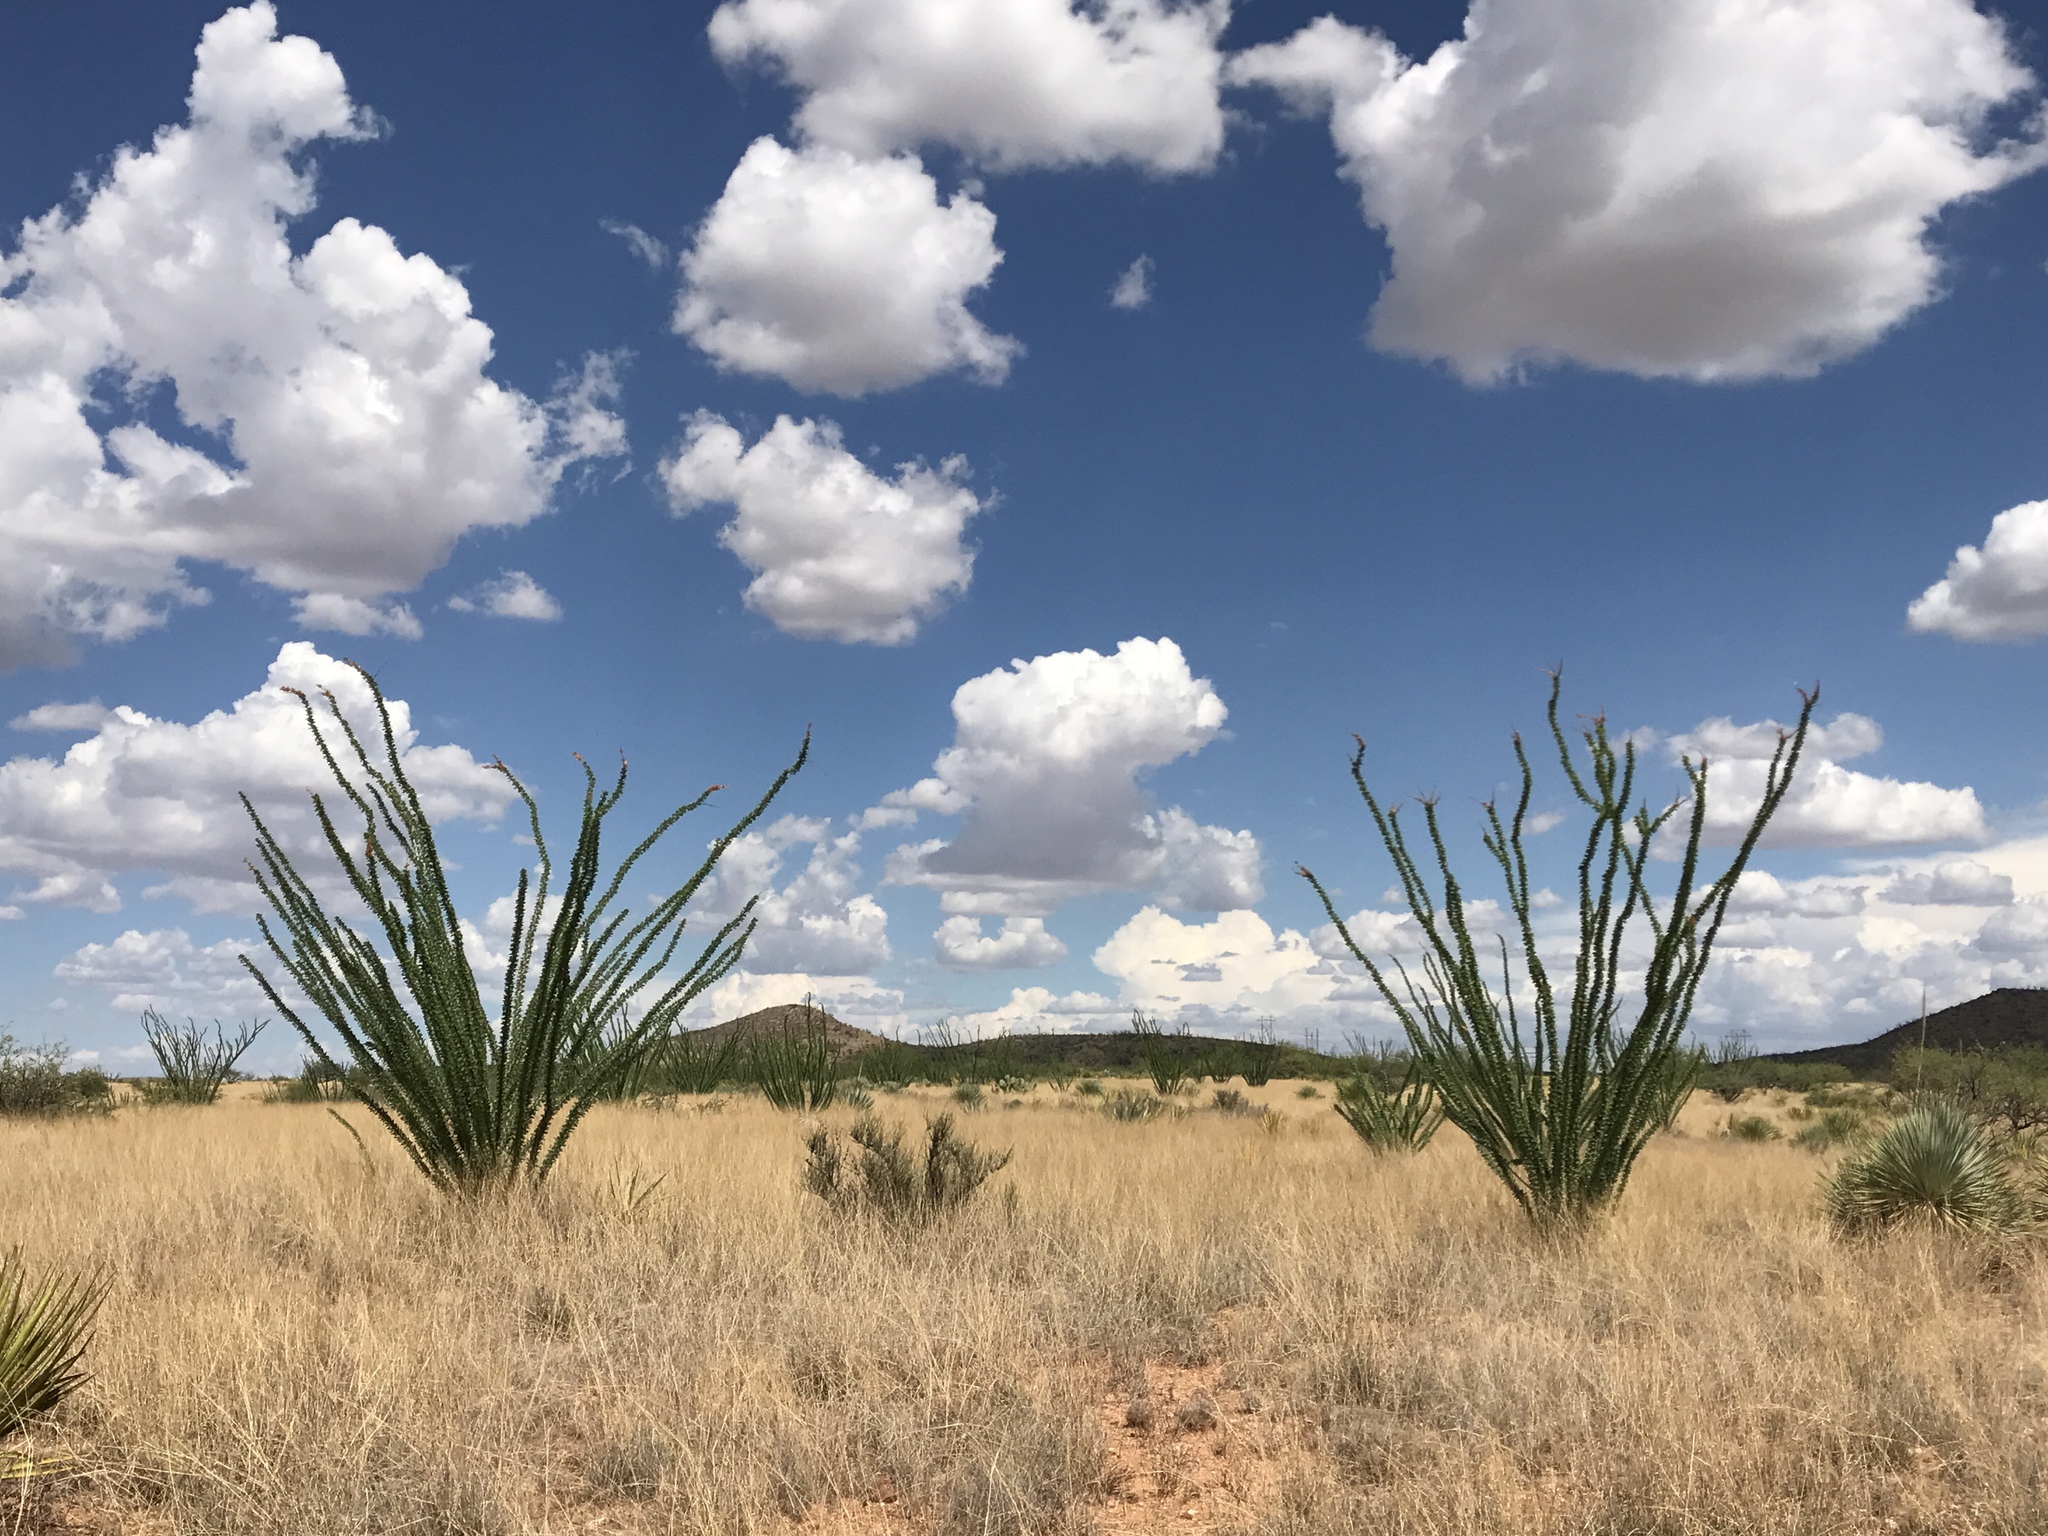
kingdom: Plantae
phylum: Tracheophyta
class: Magnoliopsida
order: Ericales
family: Fouquieriaceae
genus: Fouquieria
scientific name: Fouquieria splendens
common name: Vine-cactus
